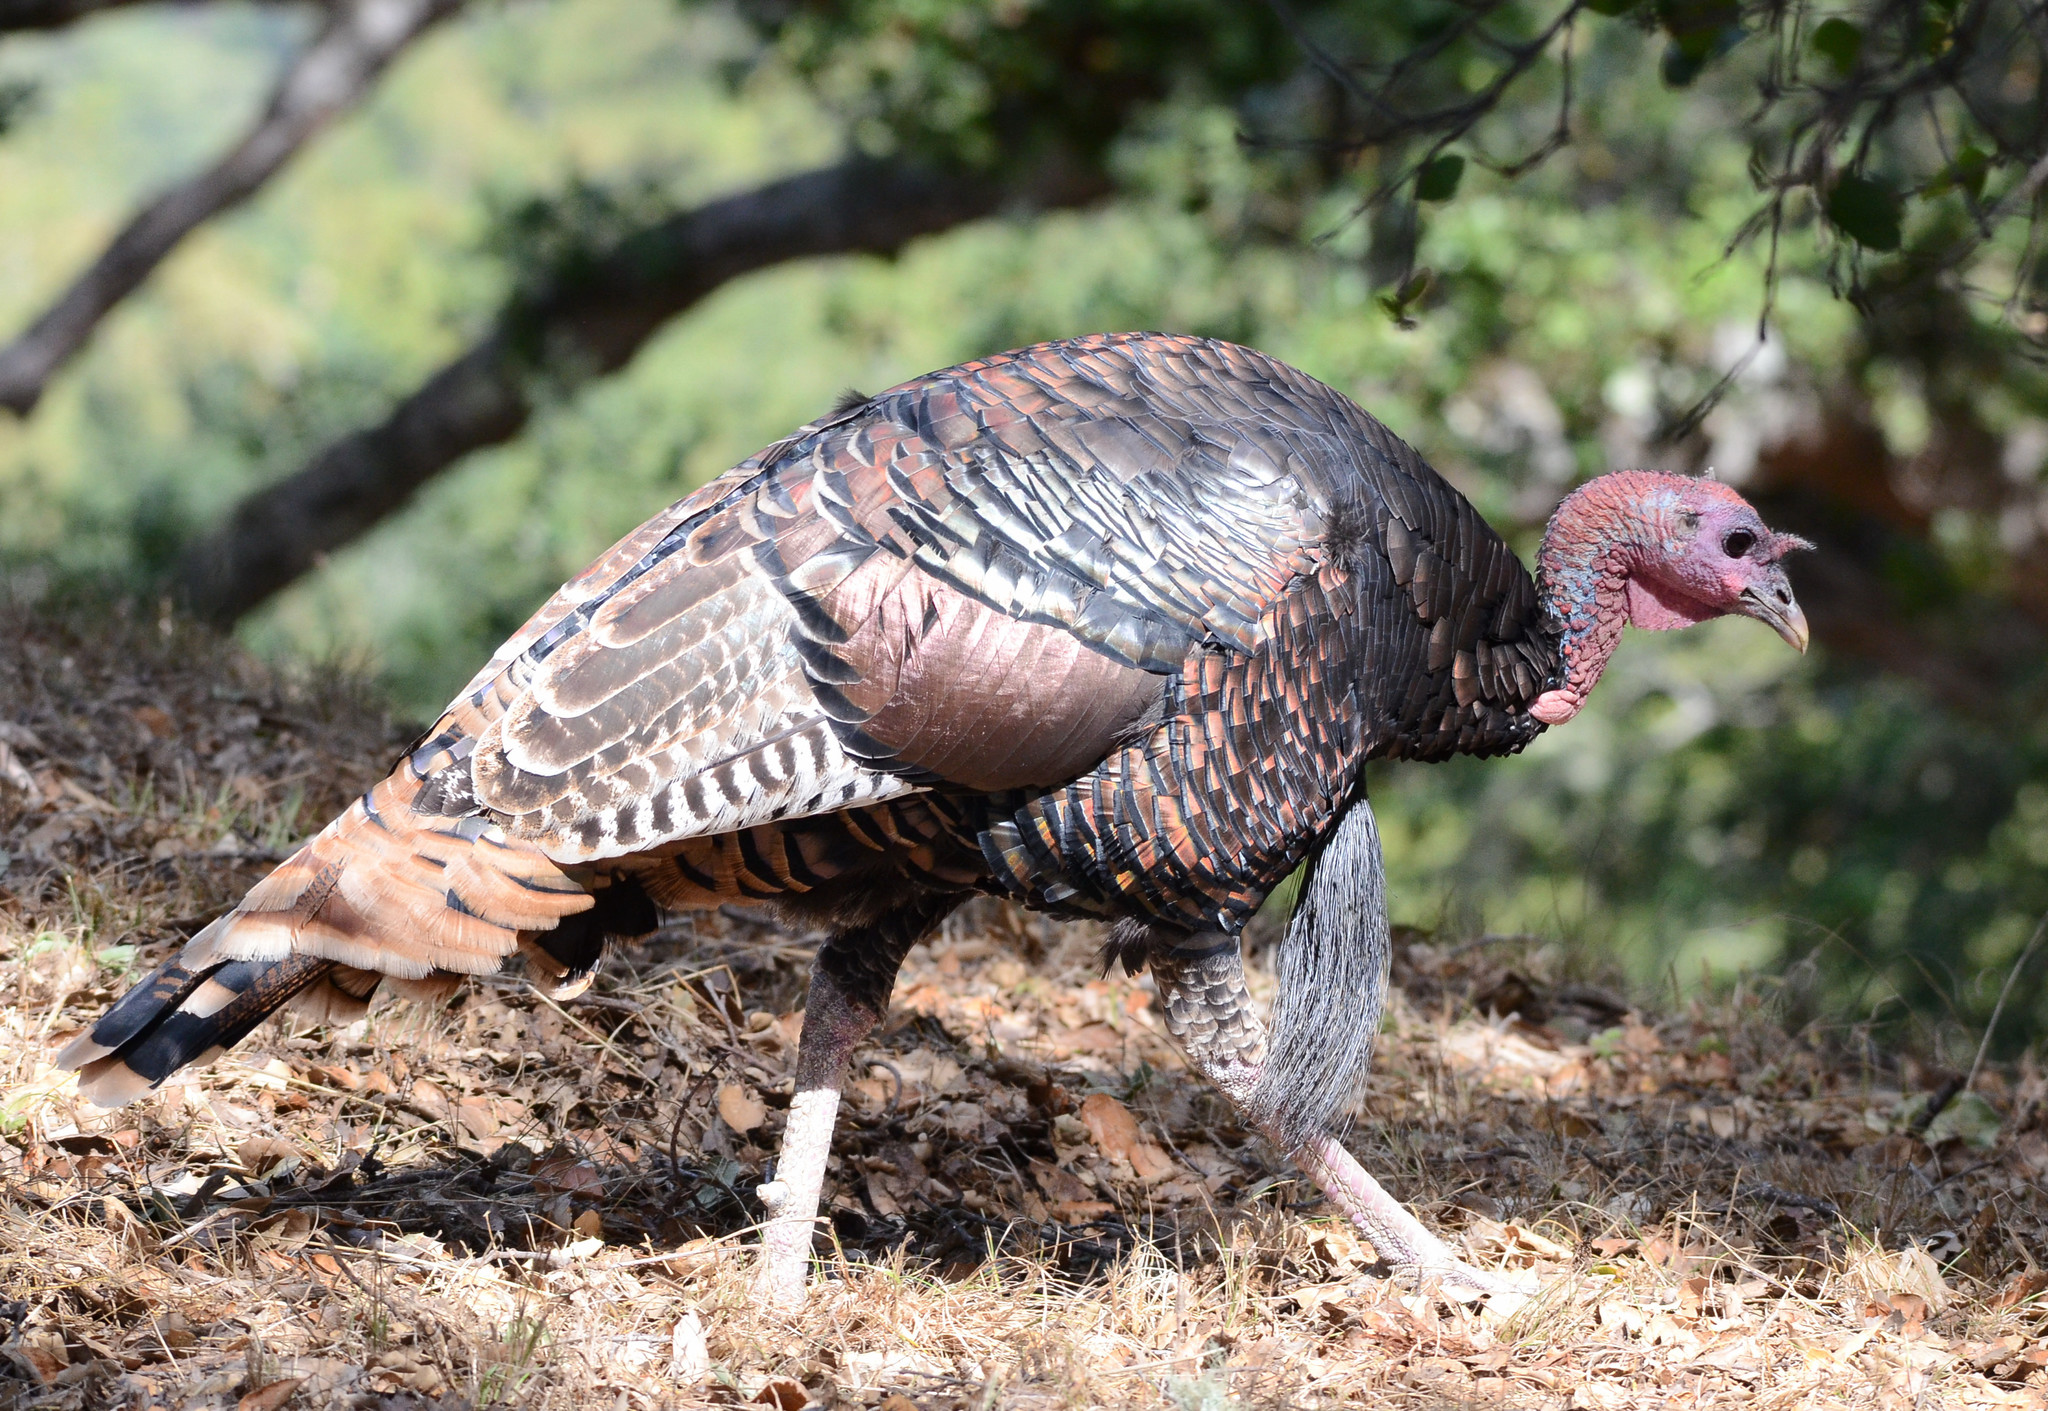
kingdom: Animalia
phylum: Chordata
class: Aves
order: Galliformes
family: Phasianidae
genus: Meleagris
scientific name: Meleagris gallopavo
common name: Wild turkey
